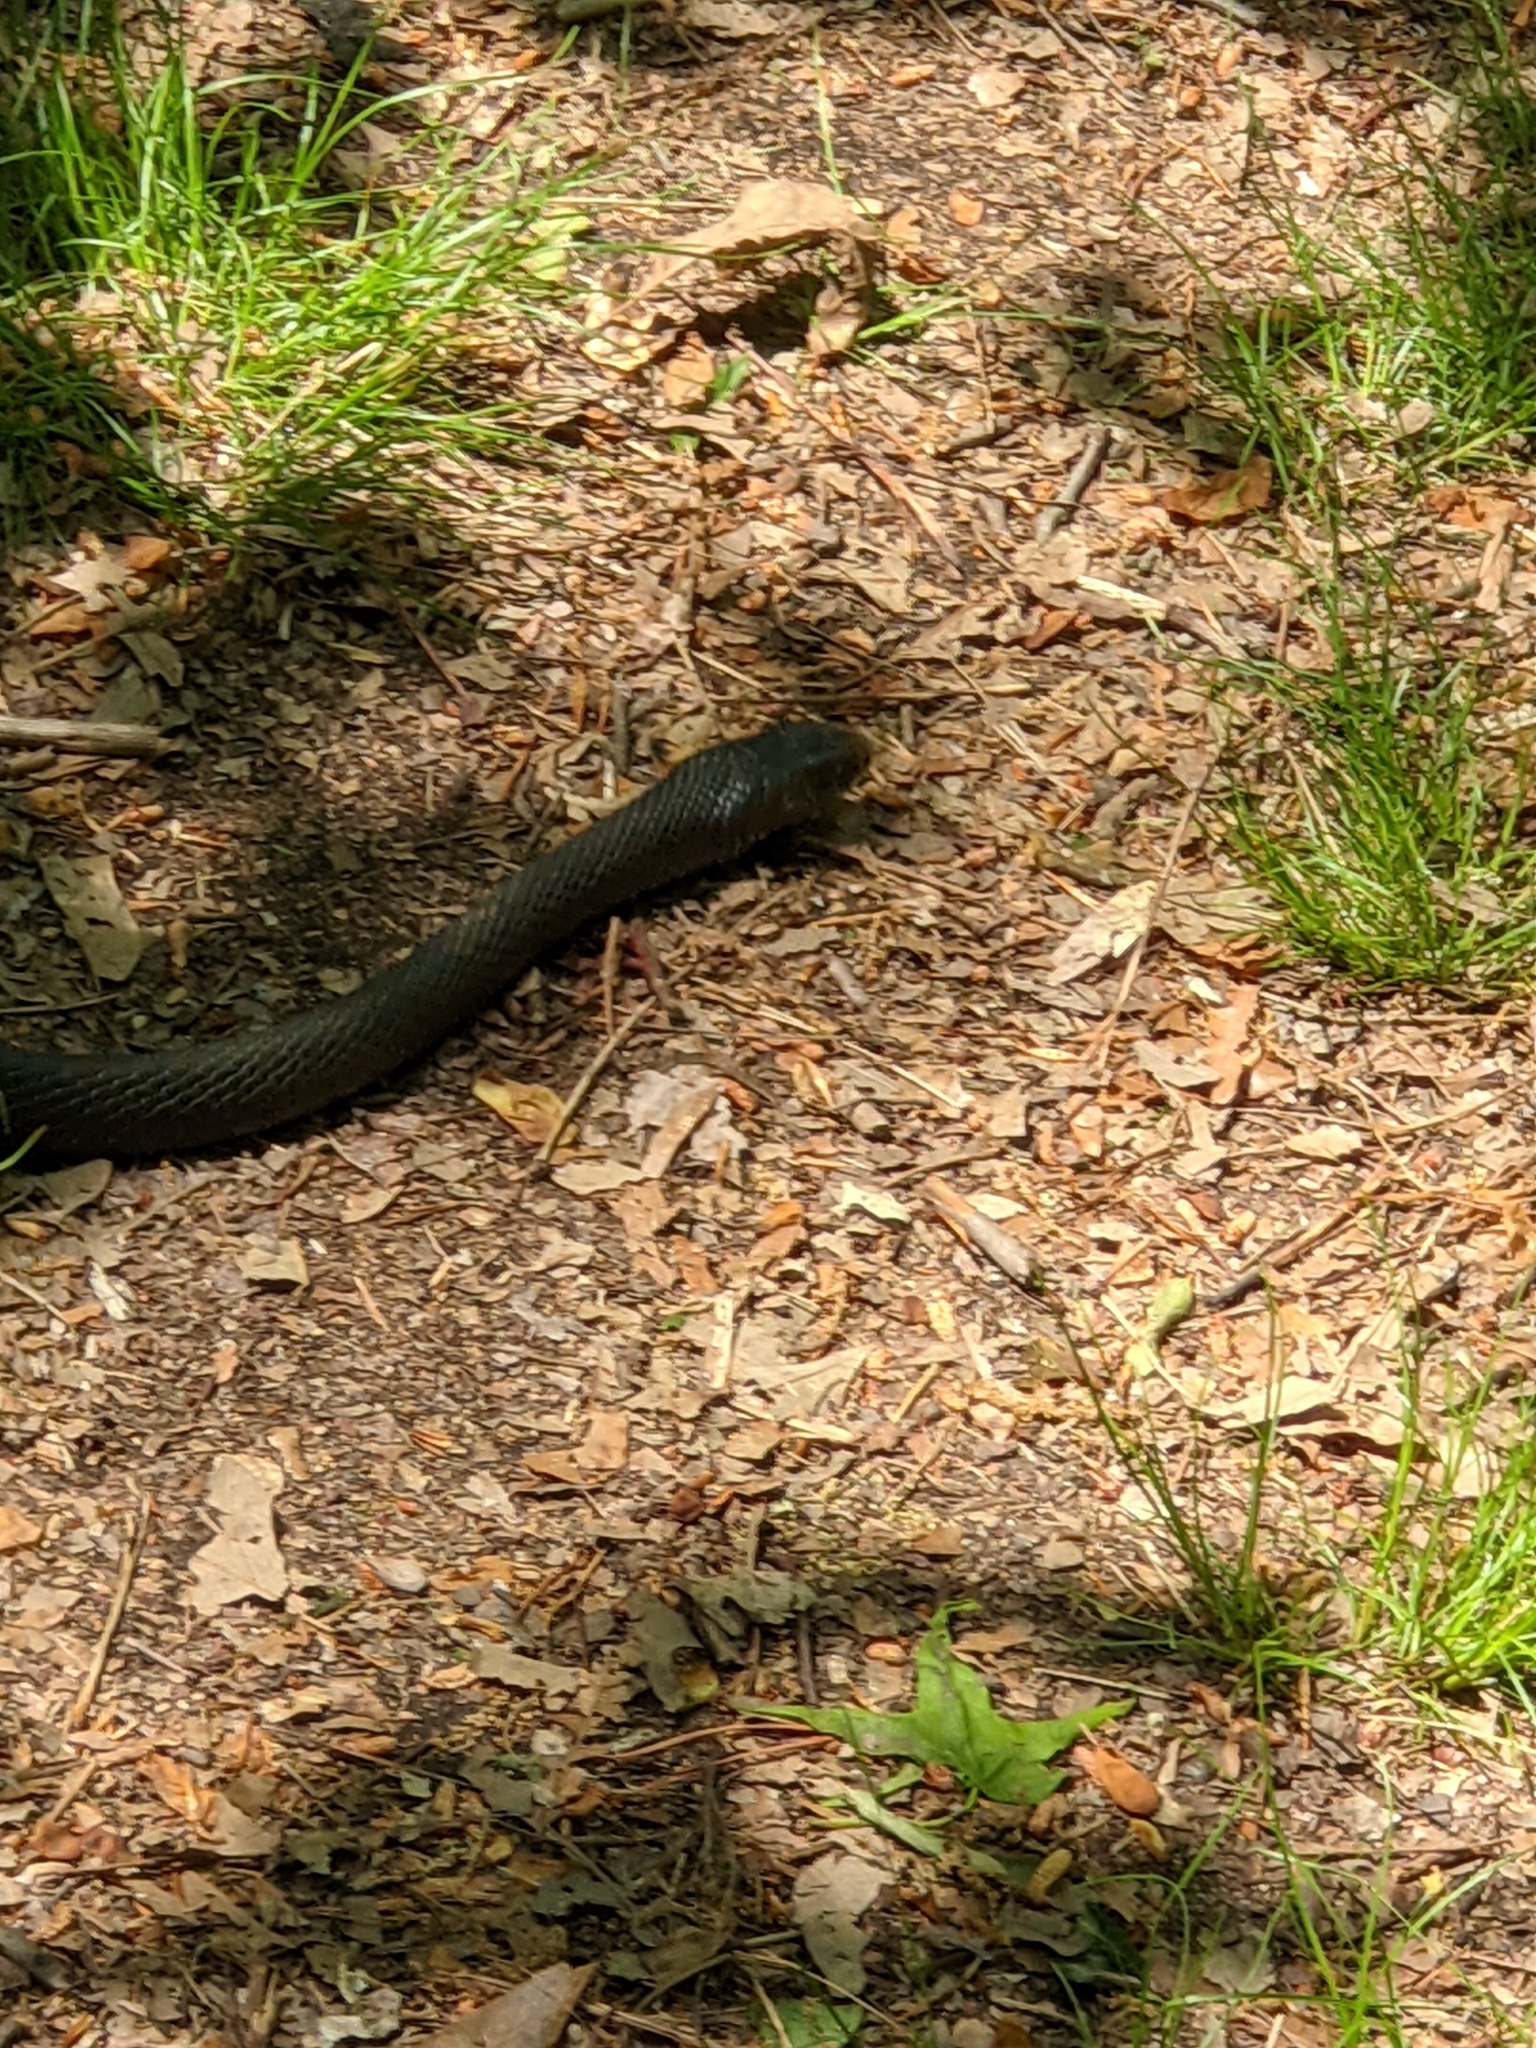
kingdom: Animalia
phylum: Chordata
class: Squamata
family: Colubridae
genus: Coluber
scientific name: Coluber constrictor
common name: Eastern racer
